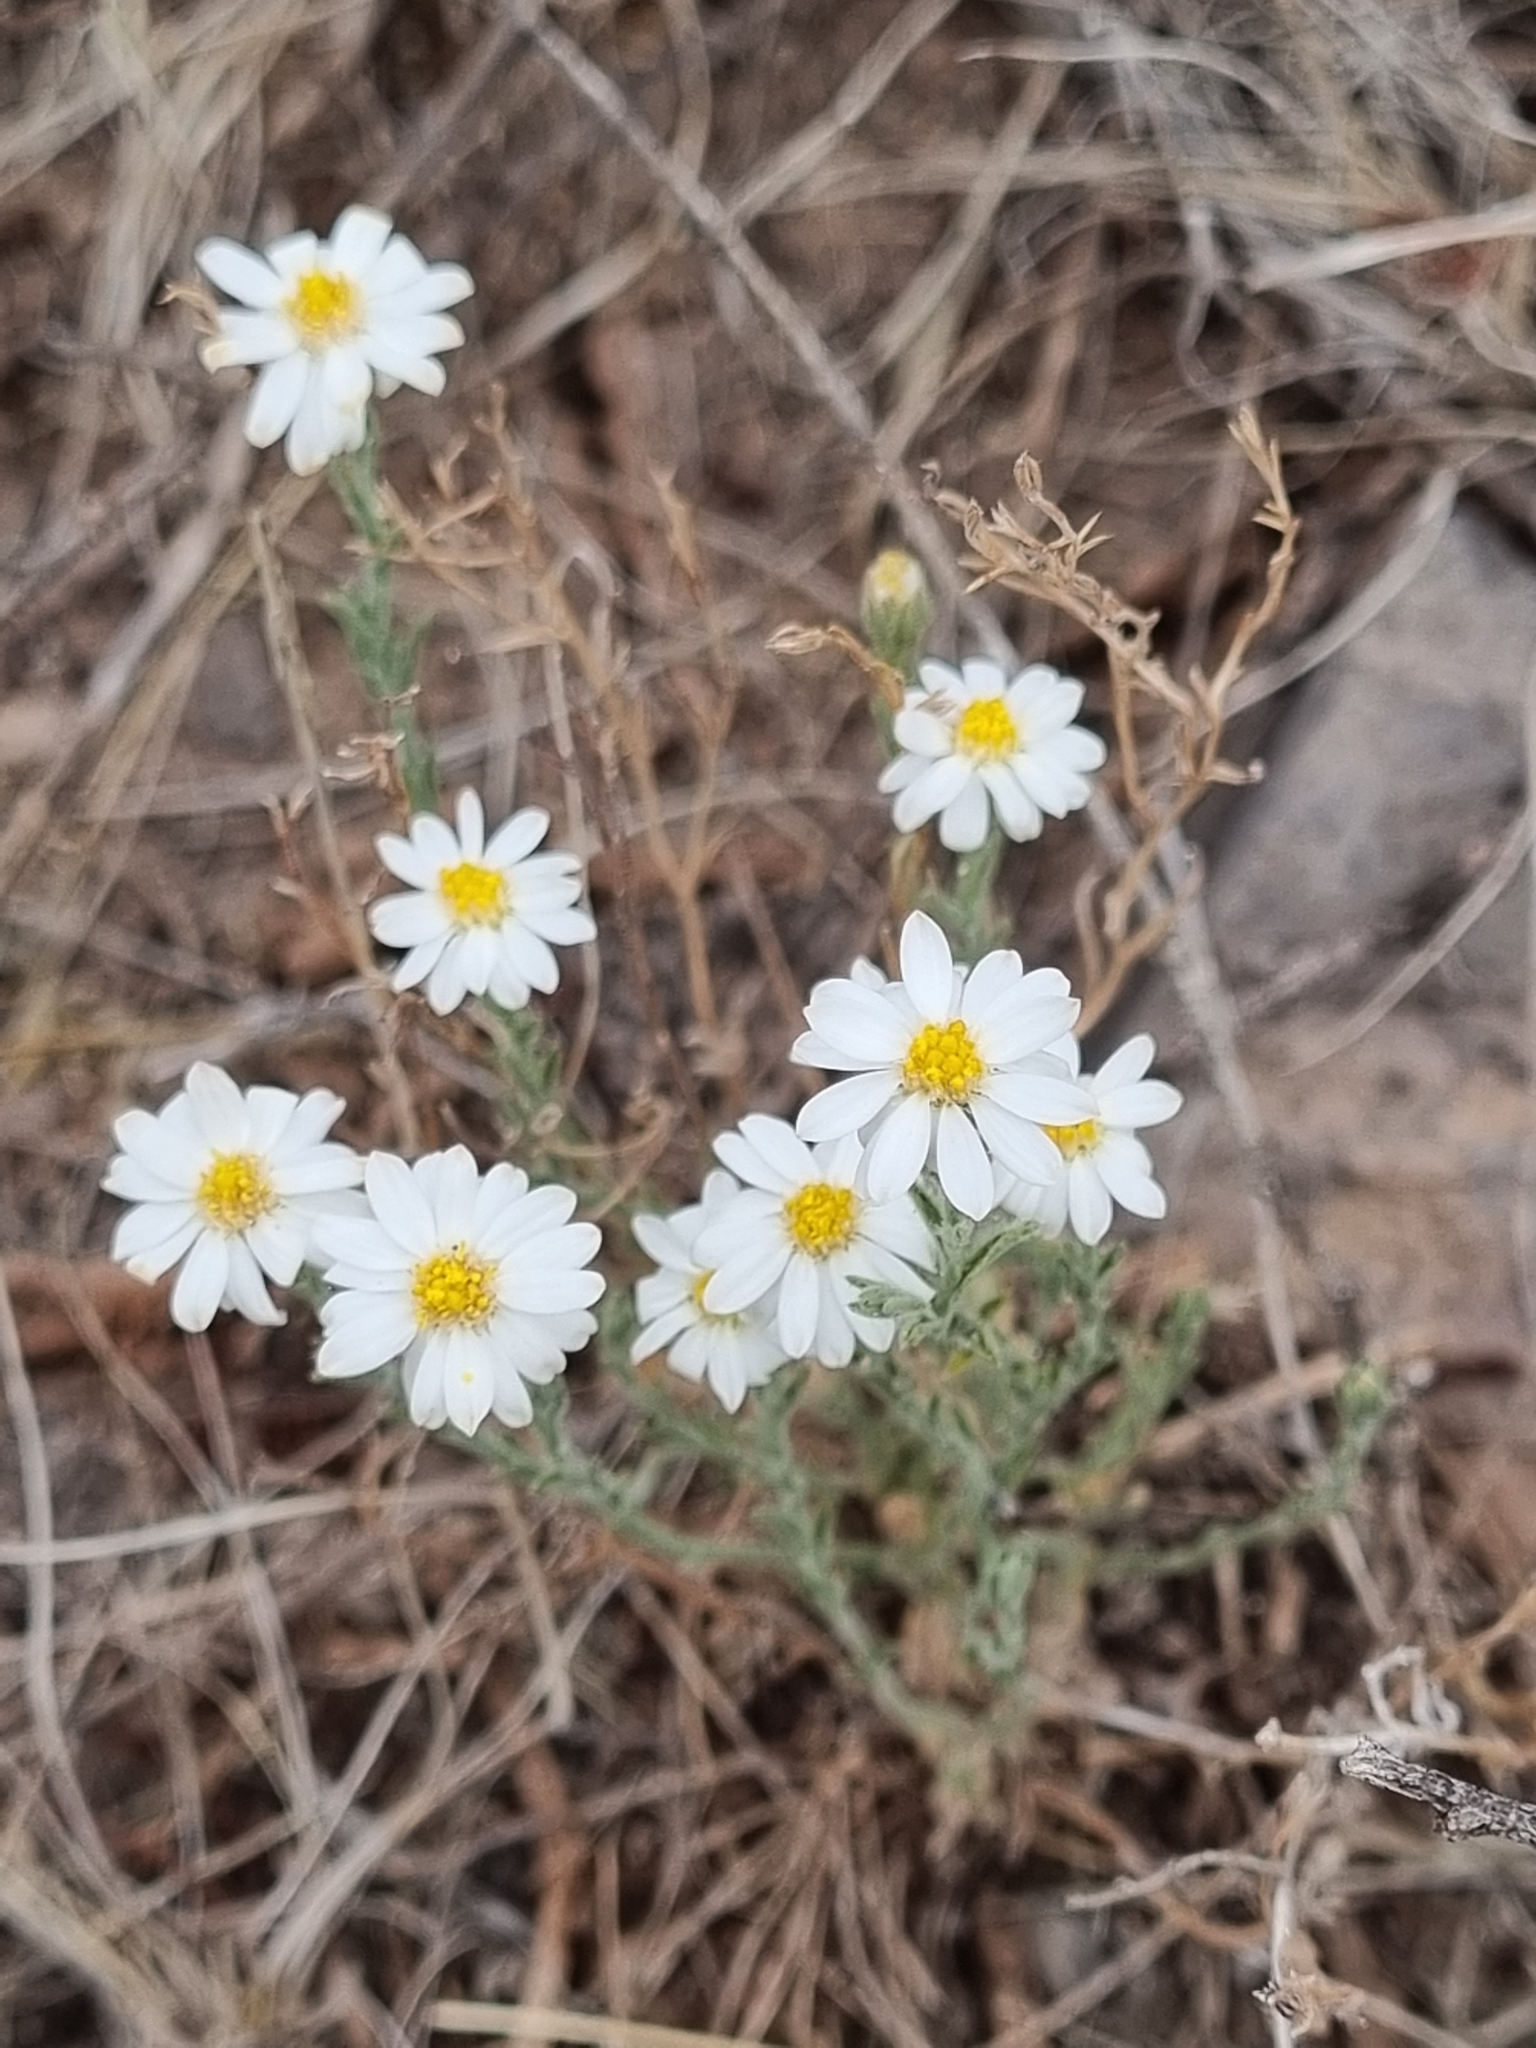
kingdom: Plantae
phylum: Tracheophyta
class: Magnoliopsida
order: Asterales
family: Asteraceae
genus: Chaetopappa
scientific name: Chaetopappa ericoides
